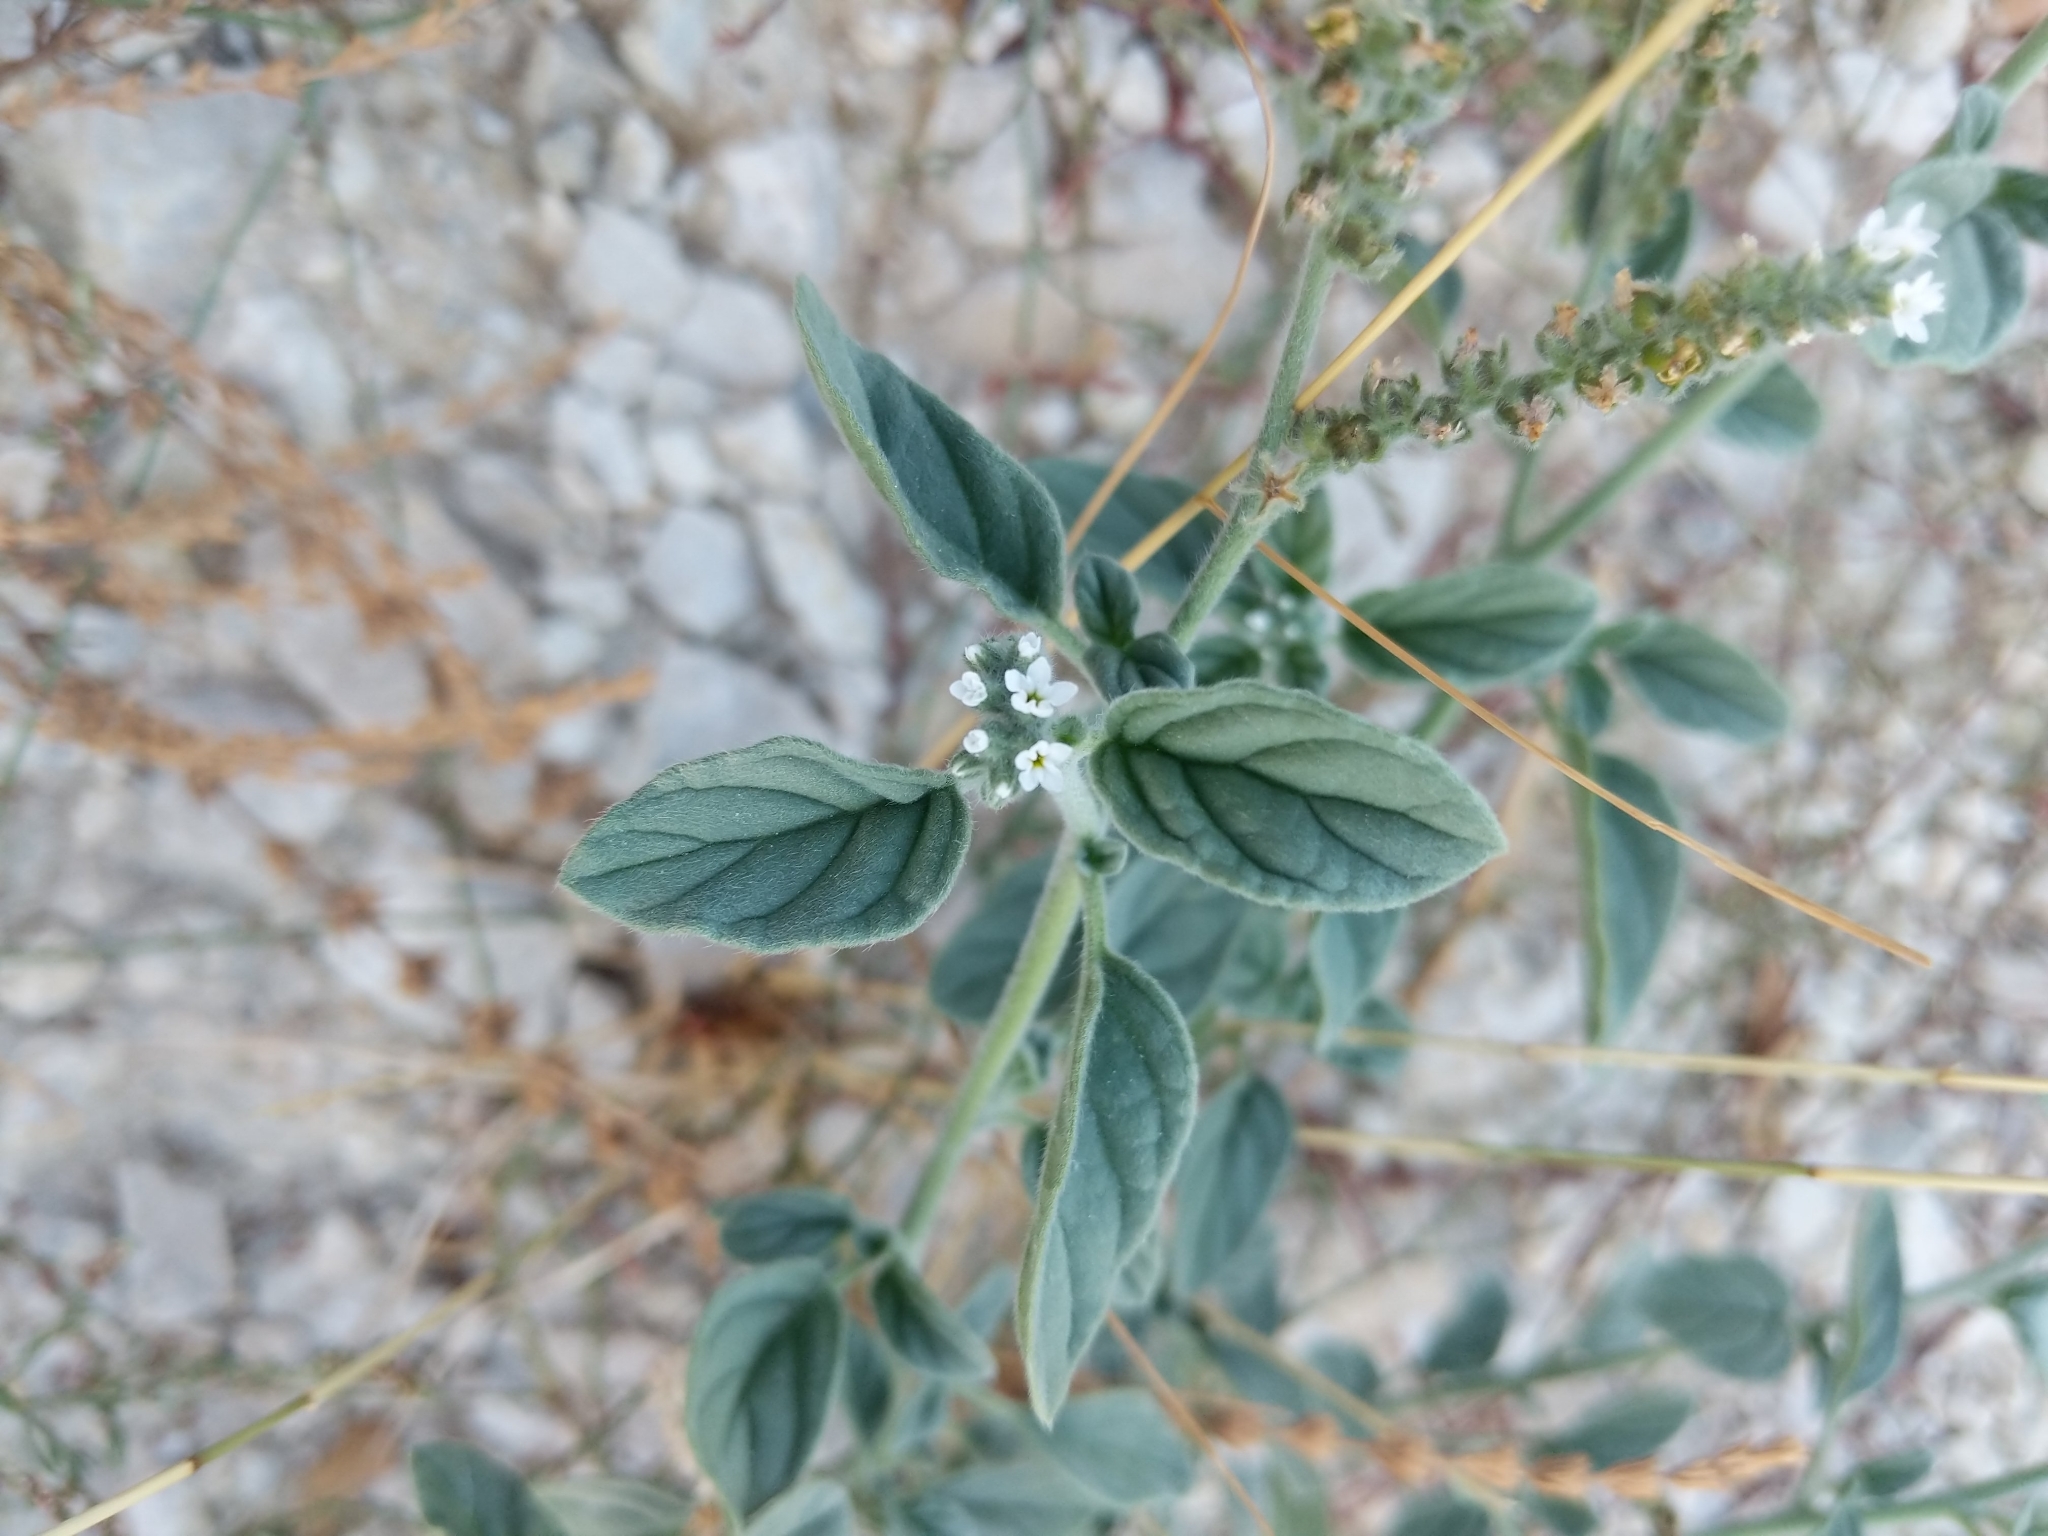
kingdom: Plantae
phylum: Tracheophyta
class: Magnoliopsida
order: Boraginales
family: Heliotropiaceae
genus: Heliotropium
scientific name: Heliotropium europaeum
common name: European heliotrope
